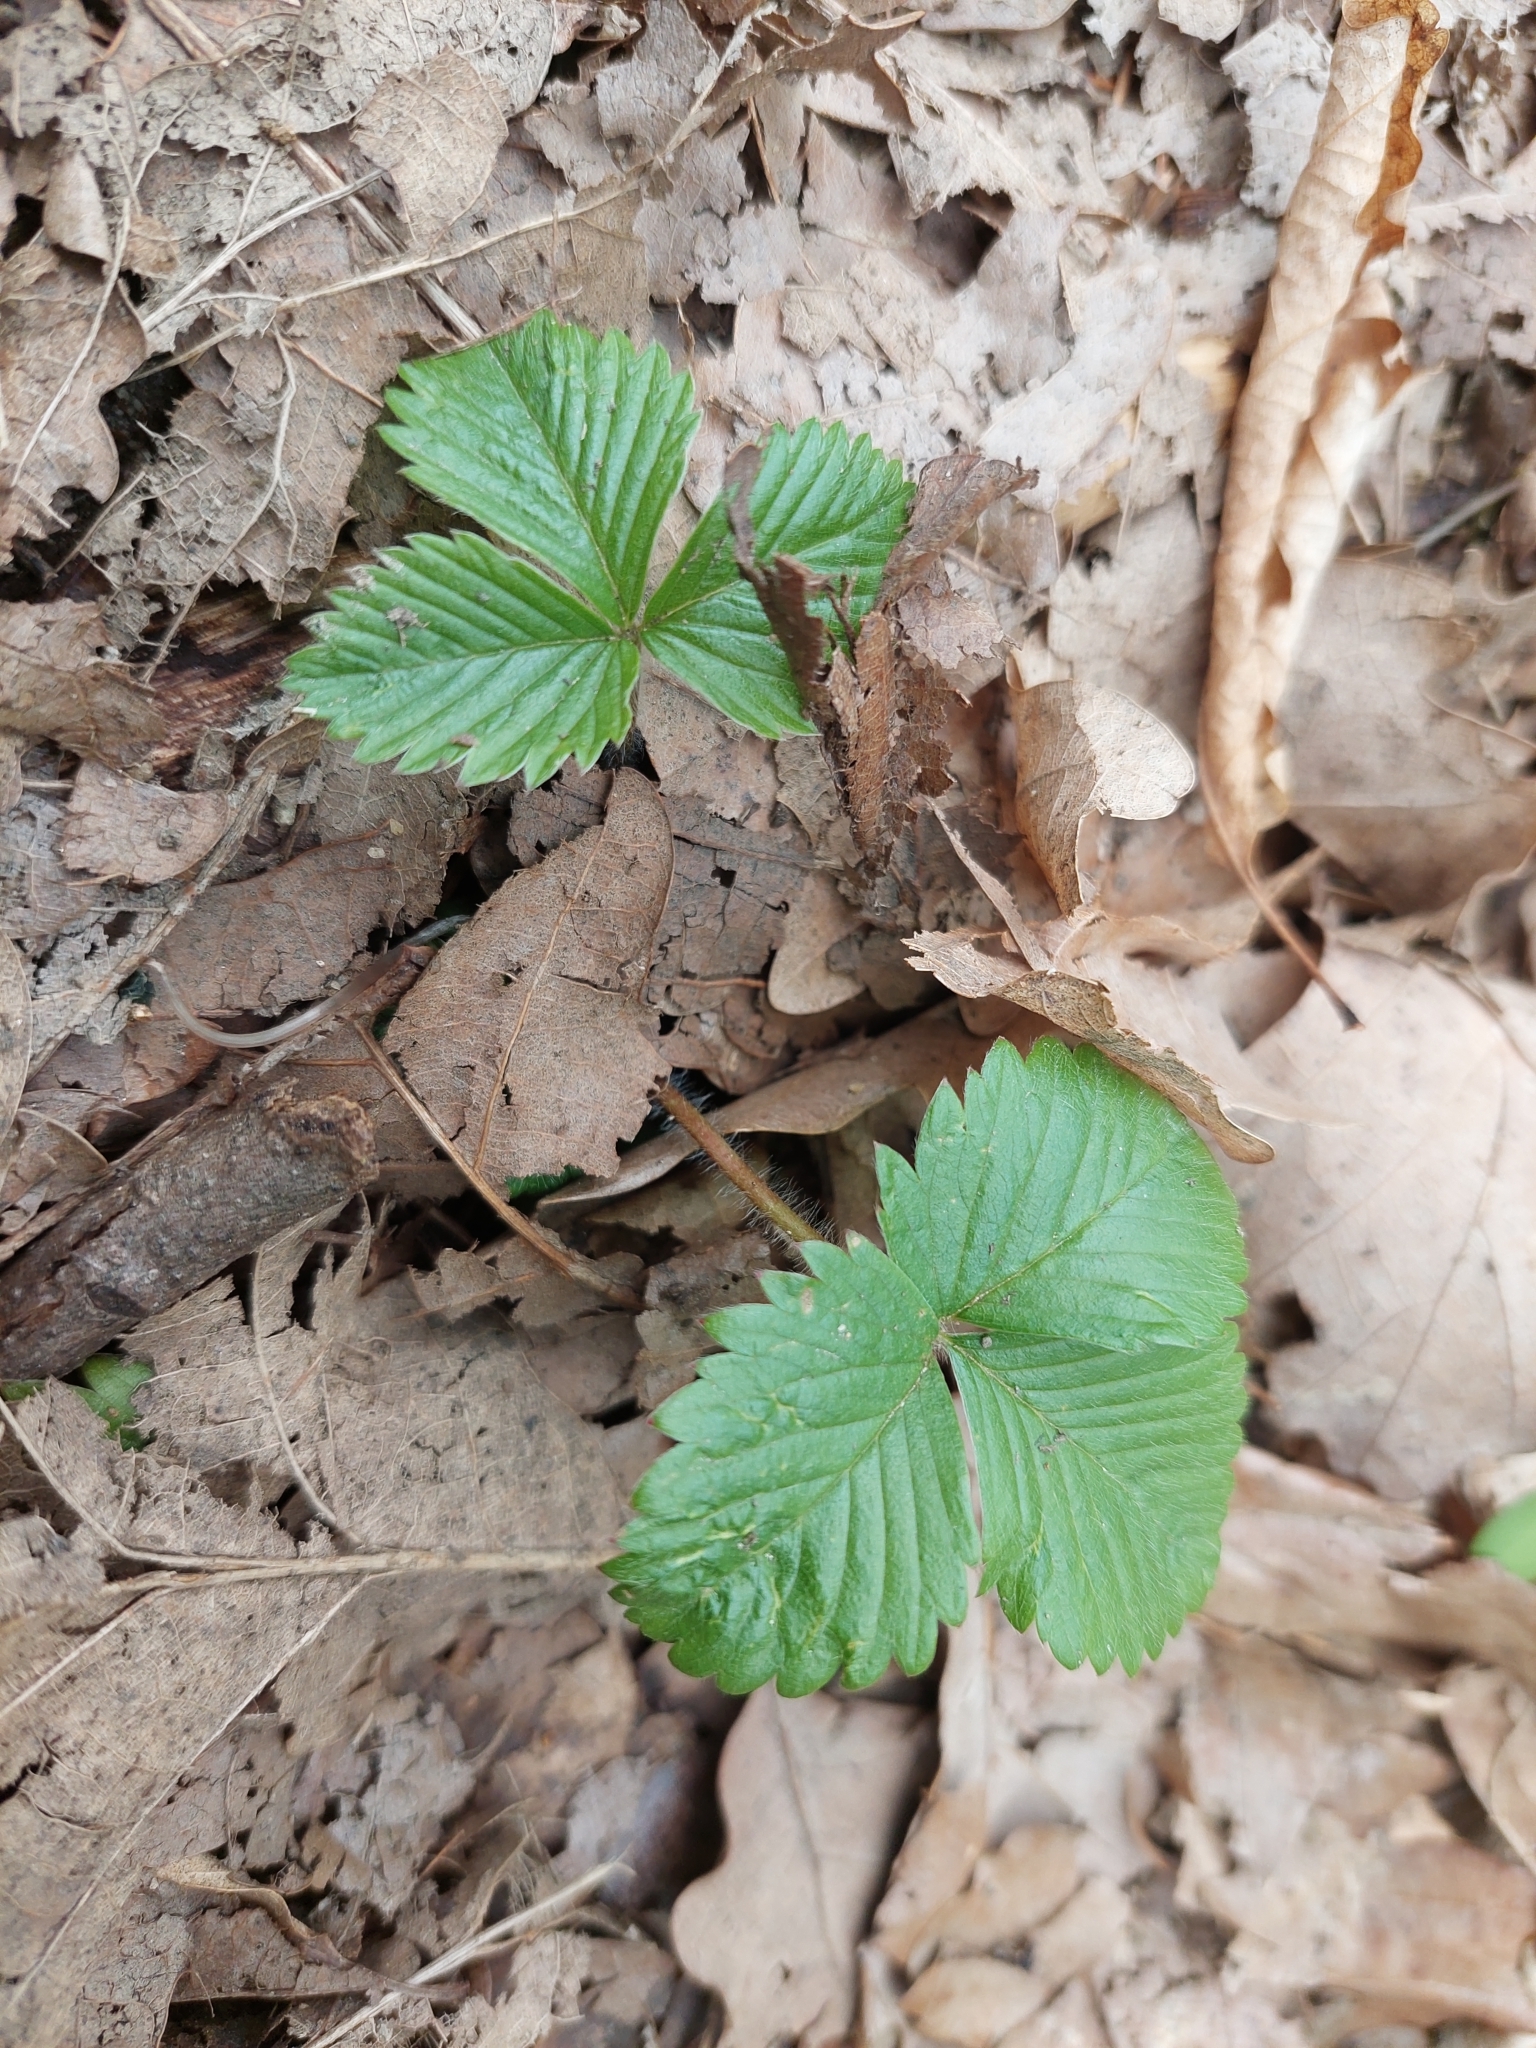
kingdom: Plantae
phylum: Tracheophyta
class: Magnoliopsida
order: Rosales
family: Rosaceae
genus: Fragaria
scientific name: Fragaria vesca
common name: Wild strawberry
